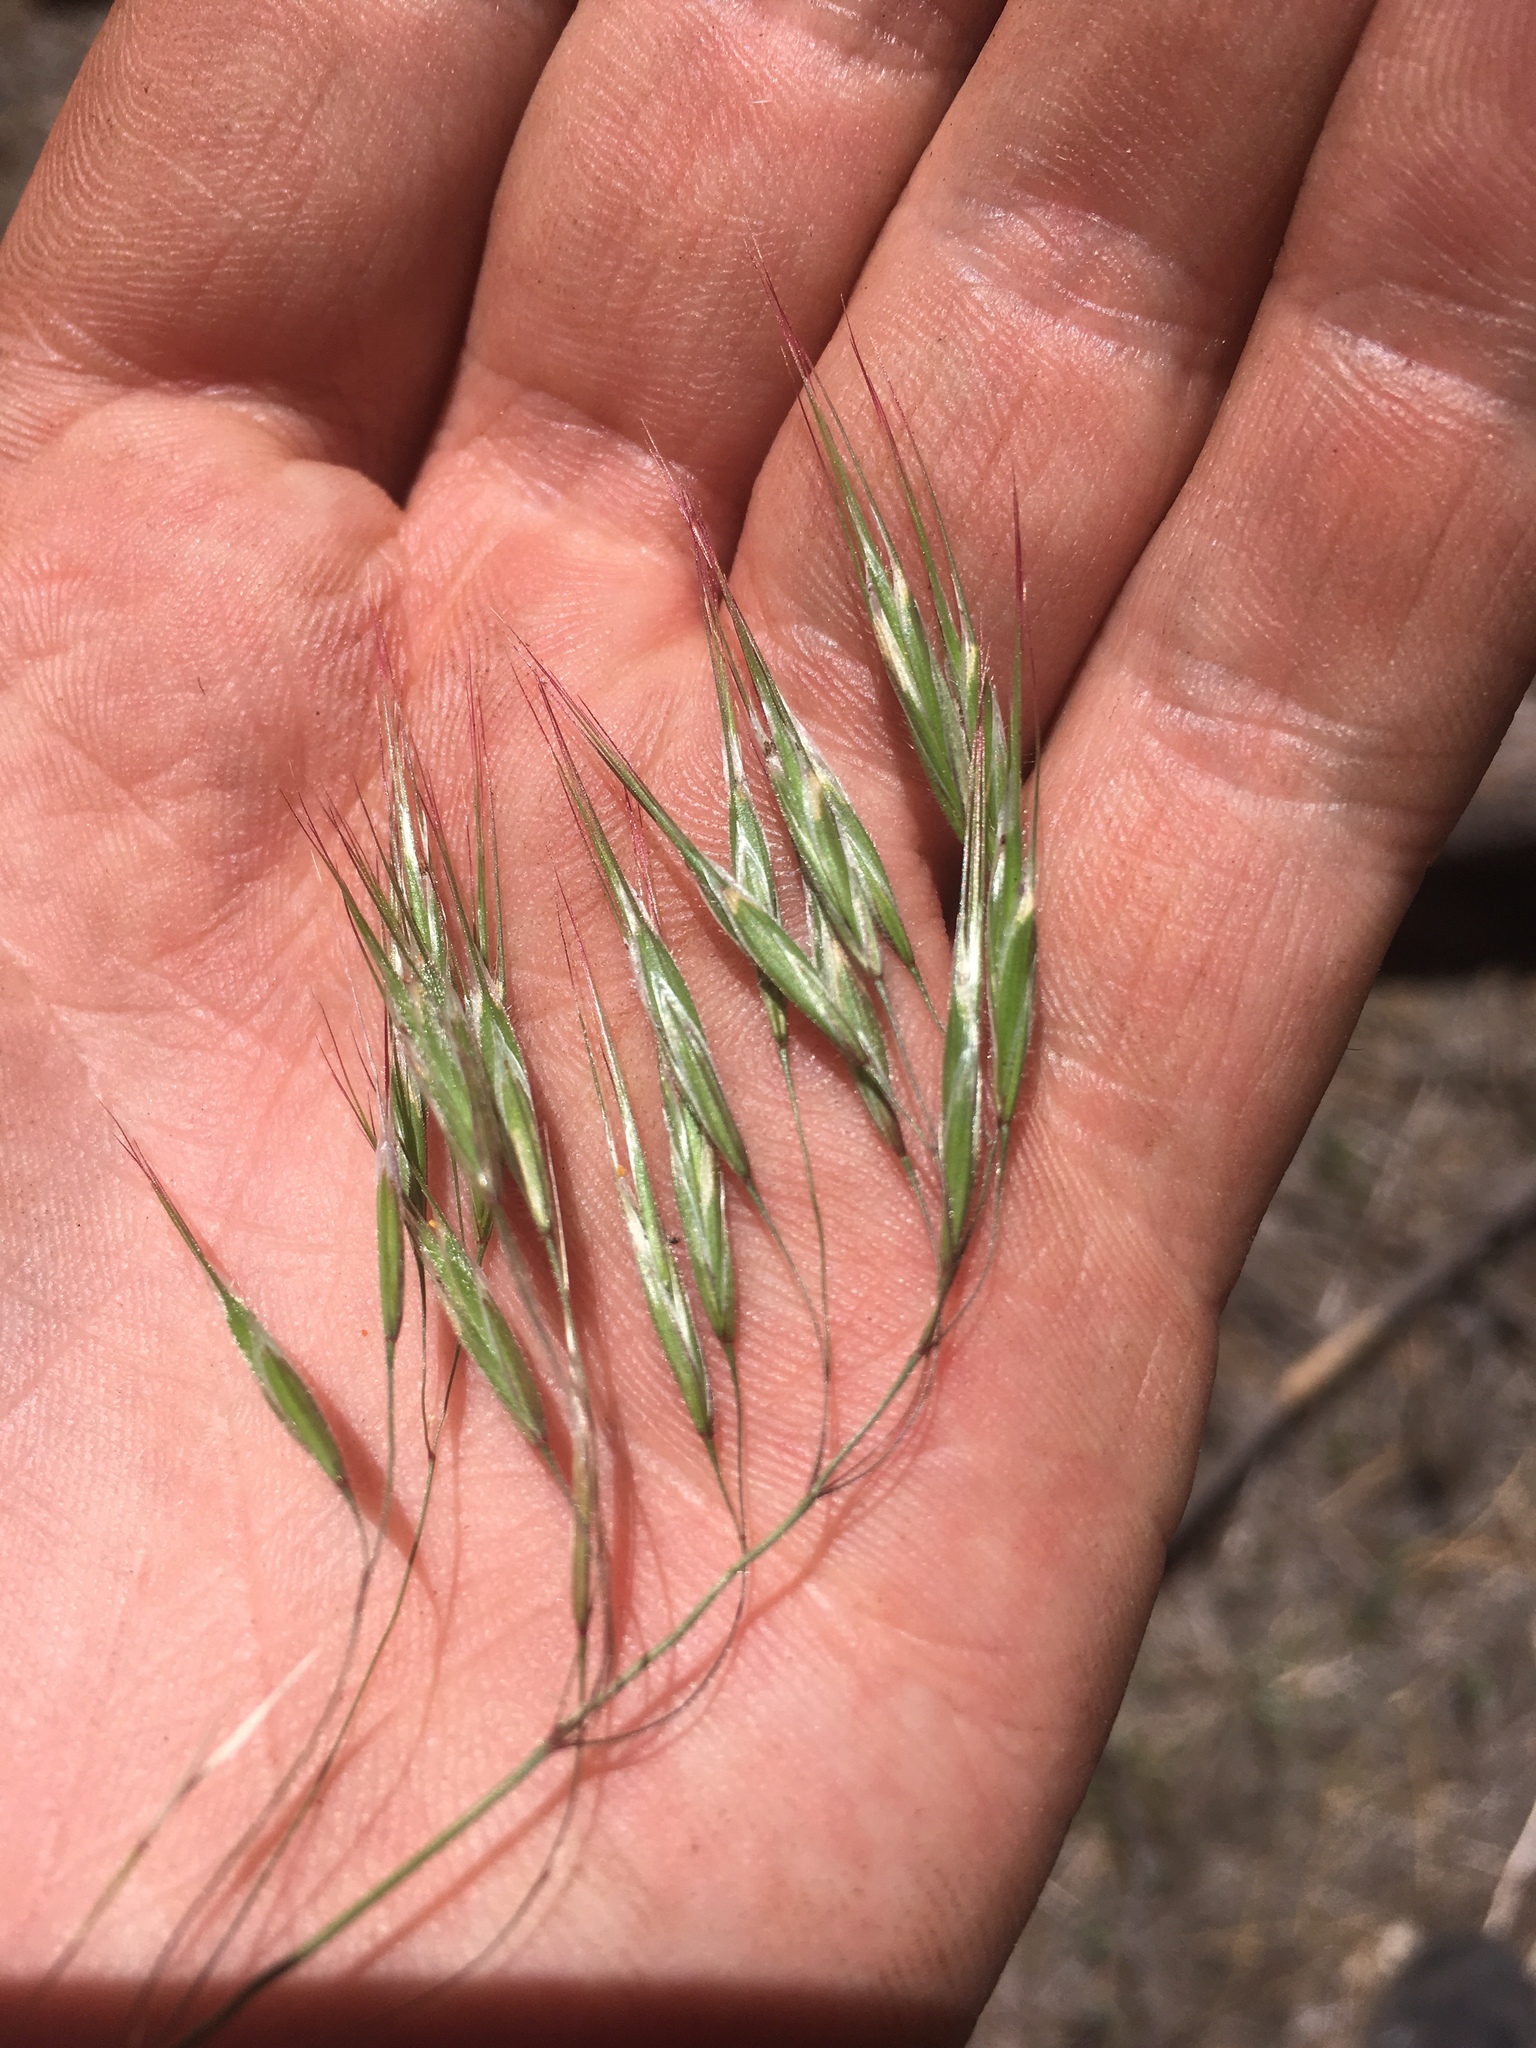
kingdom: Plantae
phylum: Tracheophyta
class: Liliopsida
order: Poales
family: Poaceae
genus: Bromus
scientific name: Bromus tectorum
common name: Cheatgrass
